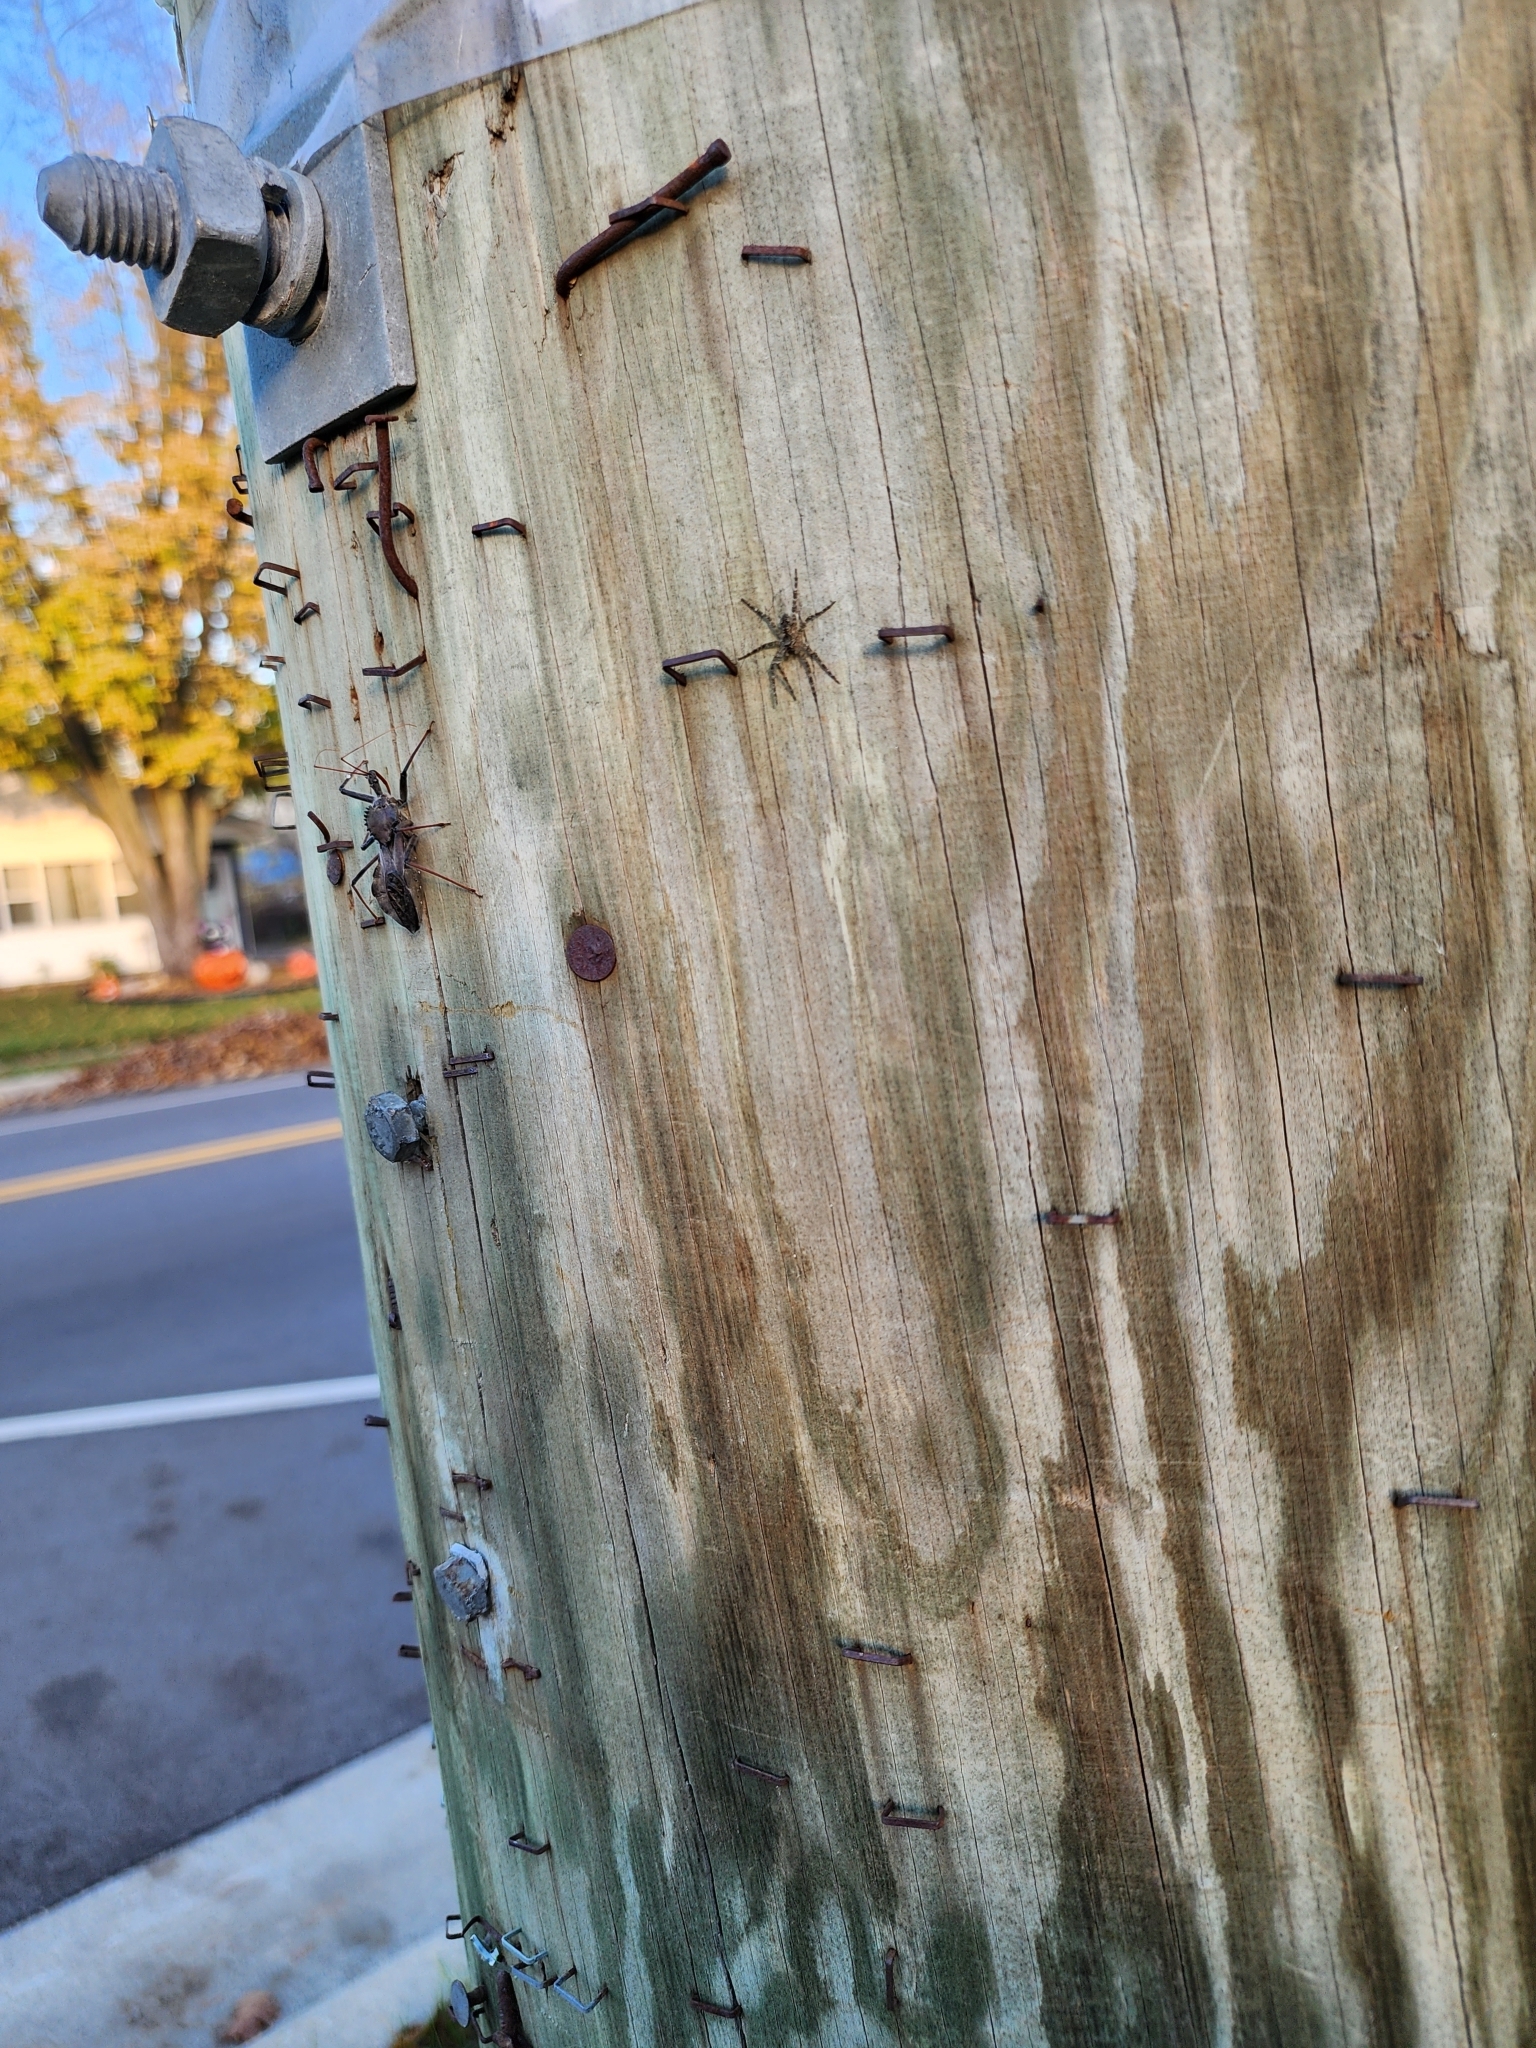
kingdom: Animalia
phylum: Arthropoda
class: Insecta
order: Hemiptera
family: Reduviidae
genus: Arilus
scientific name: Arilus cristatus
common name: North american wheel bug
